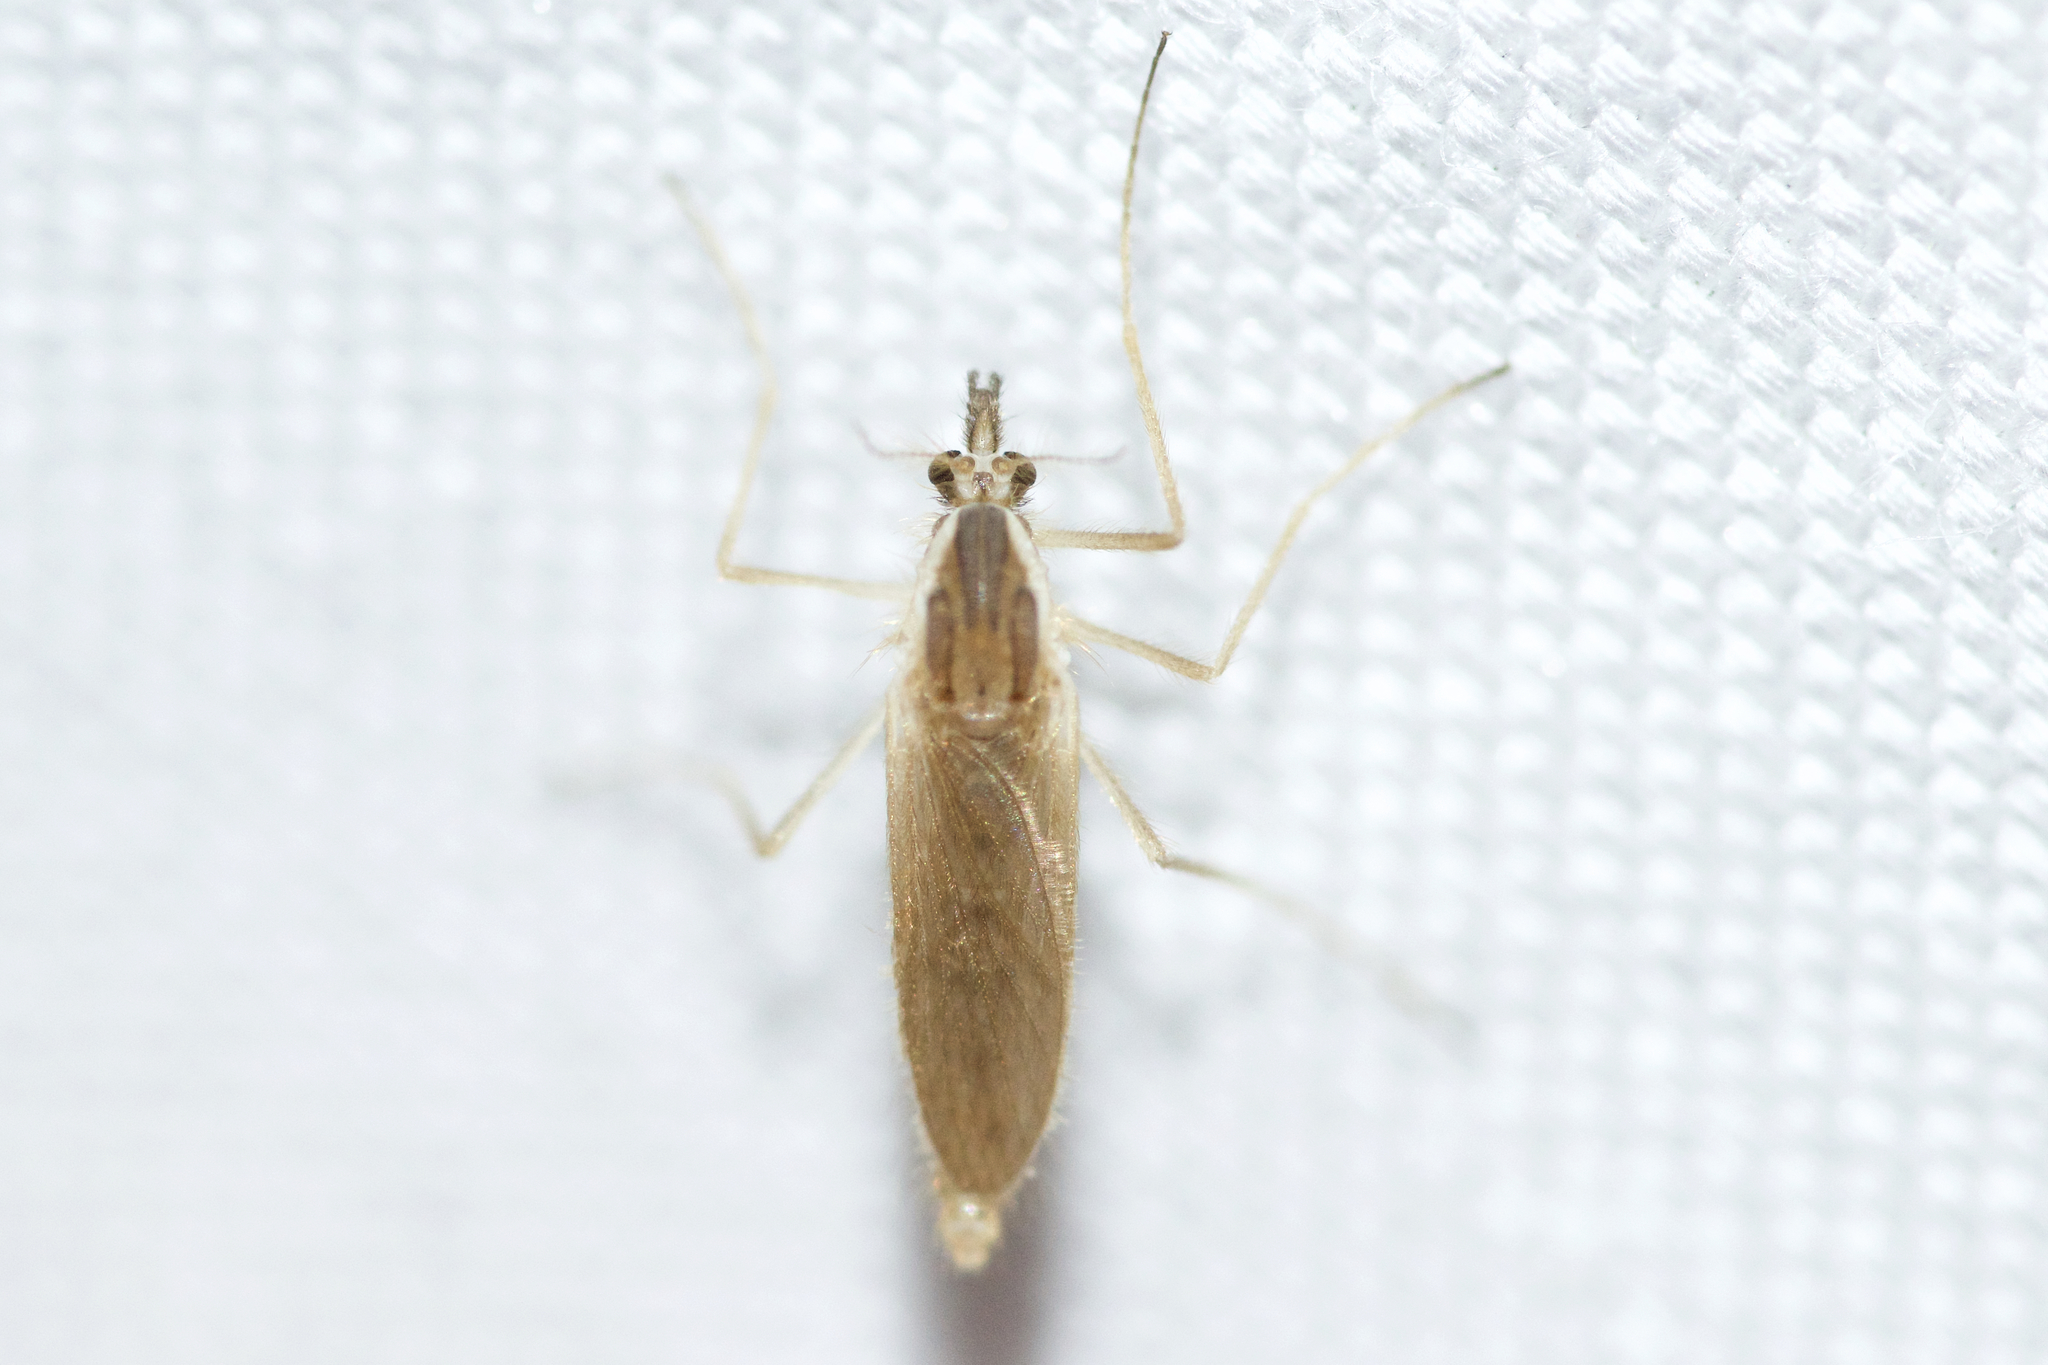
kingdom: Animalia
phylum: Arthropoda
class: Insecta
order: Diptera
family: Chaoboridae
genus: Chaoborus
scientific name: Chaoborus
